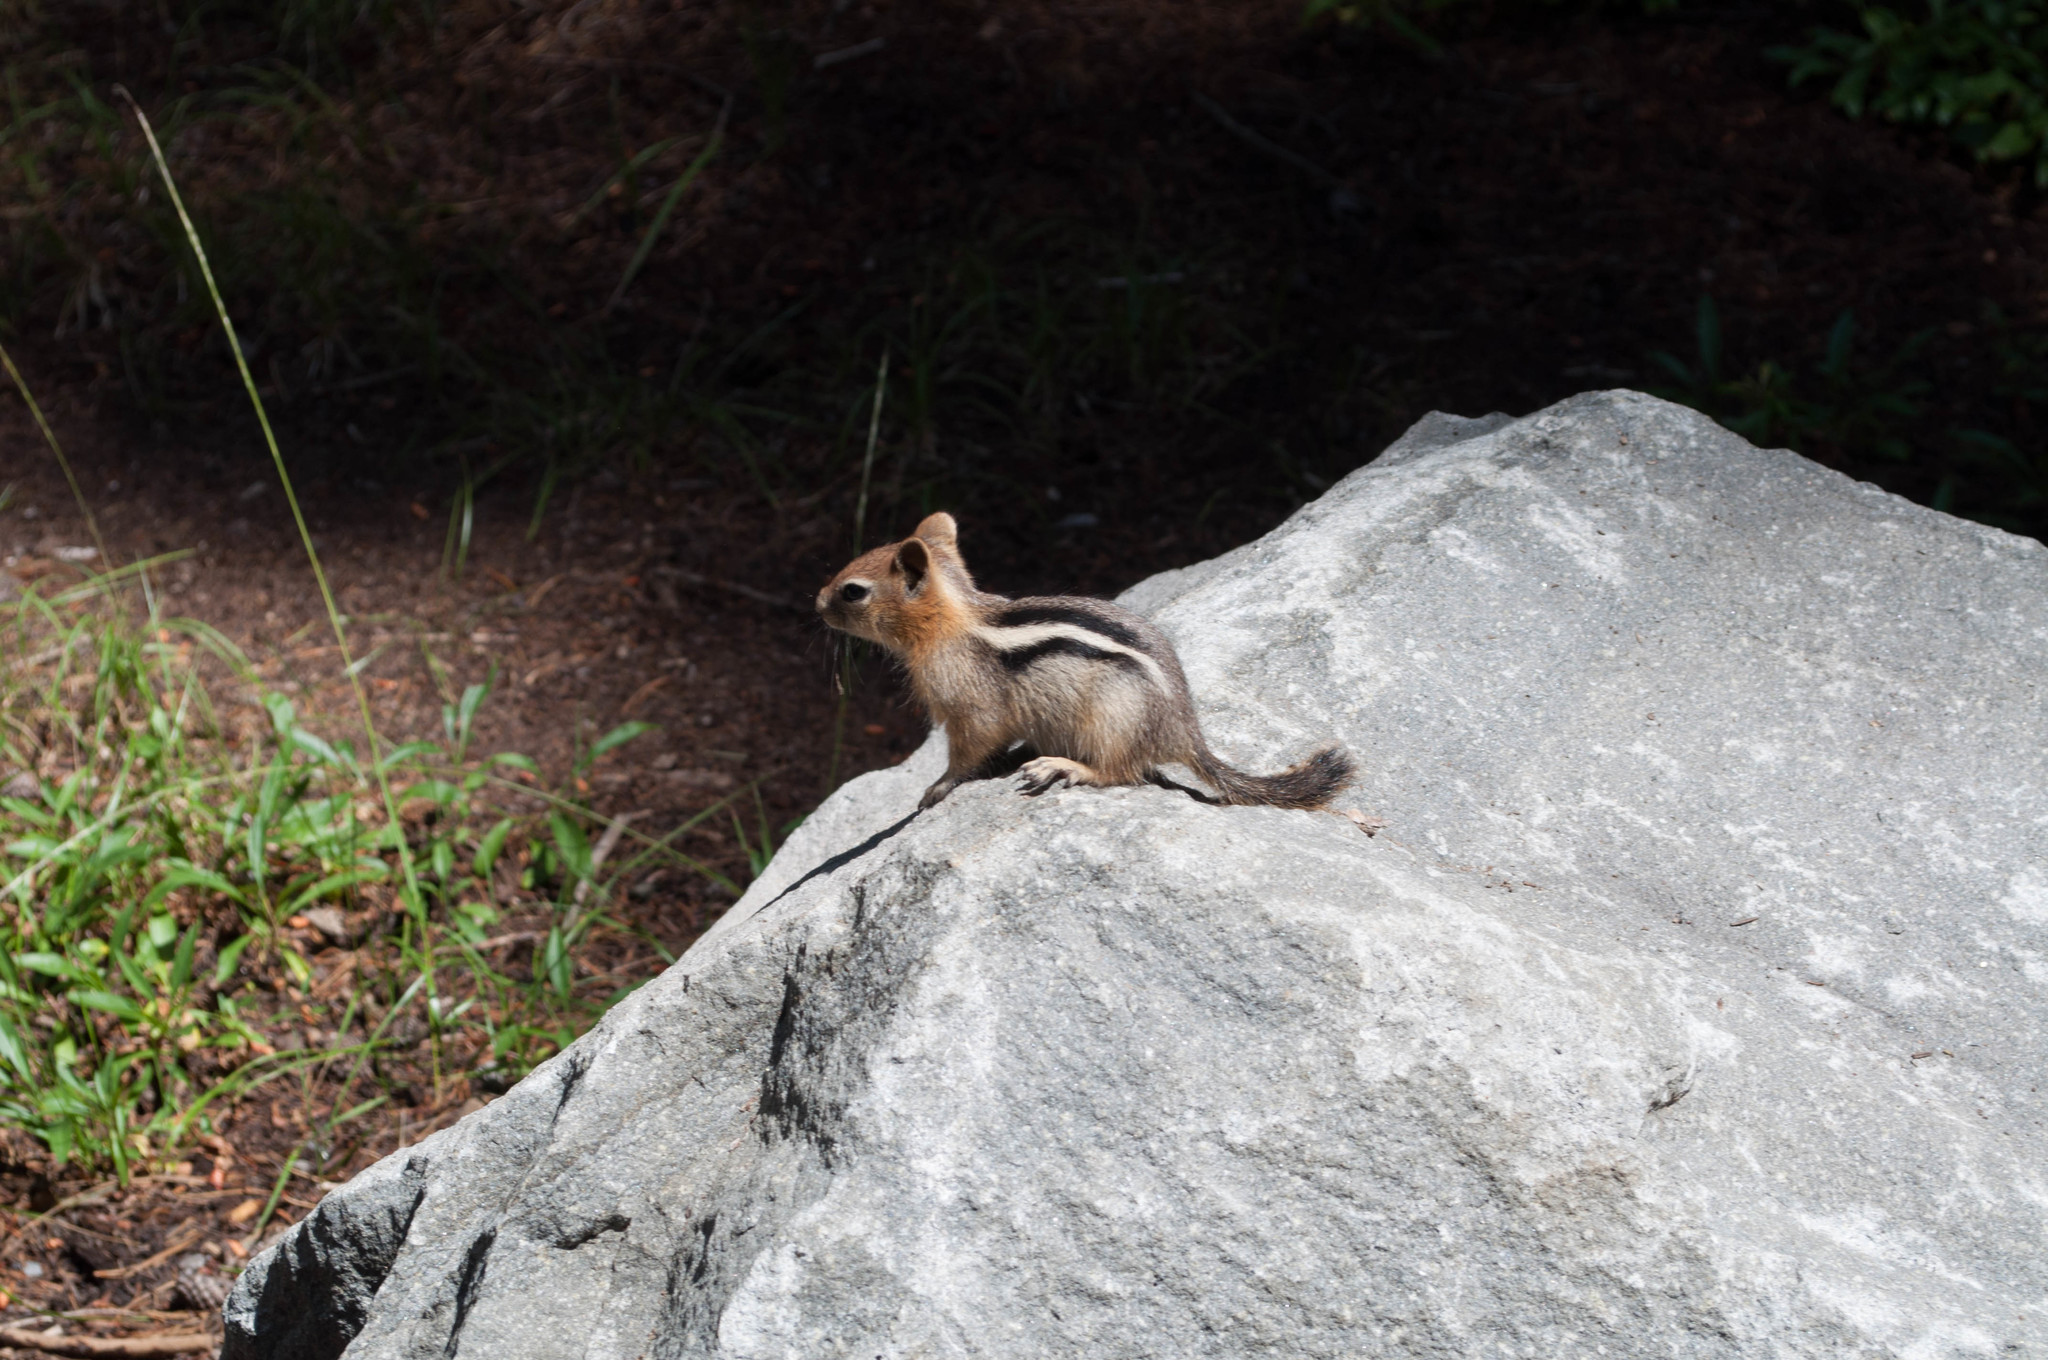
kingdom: Animalia
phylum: Chordata
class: Mammalia
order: Rodentia
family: Sciuridae
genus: Callospermophilus
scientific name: Callospermophilus lateralis
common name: Golden-mantled ground squirrel
